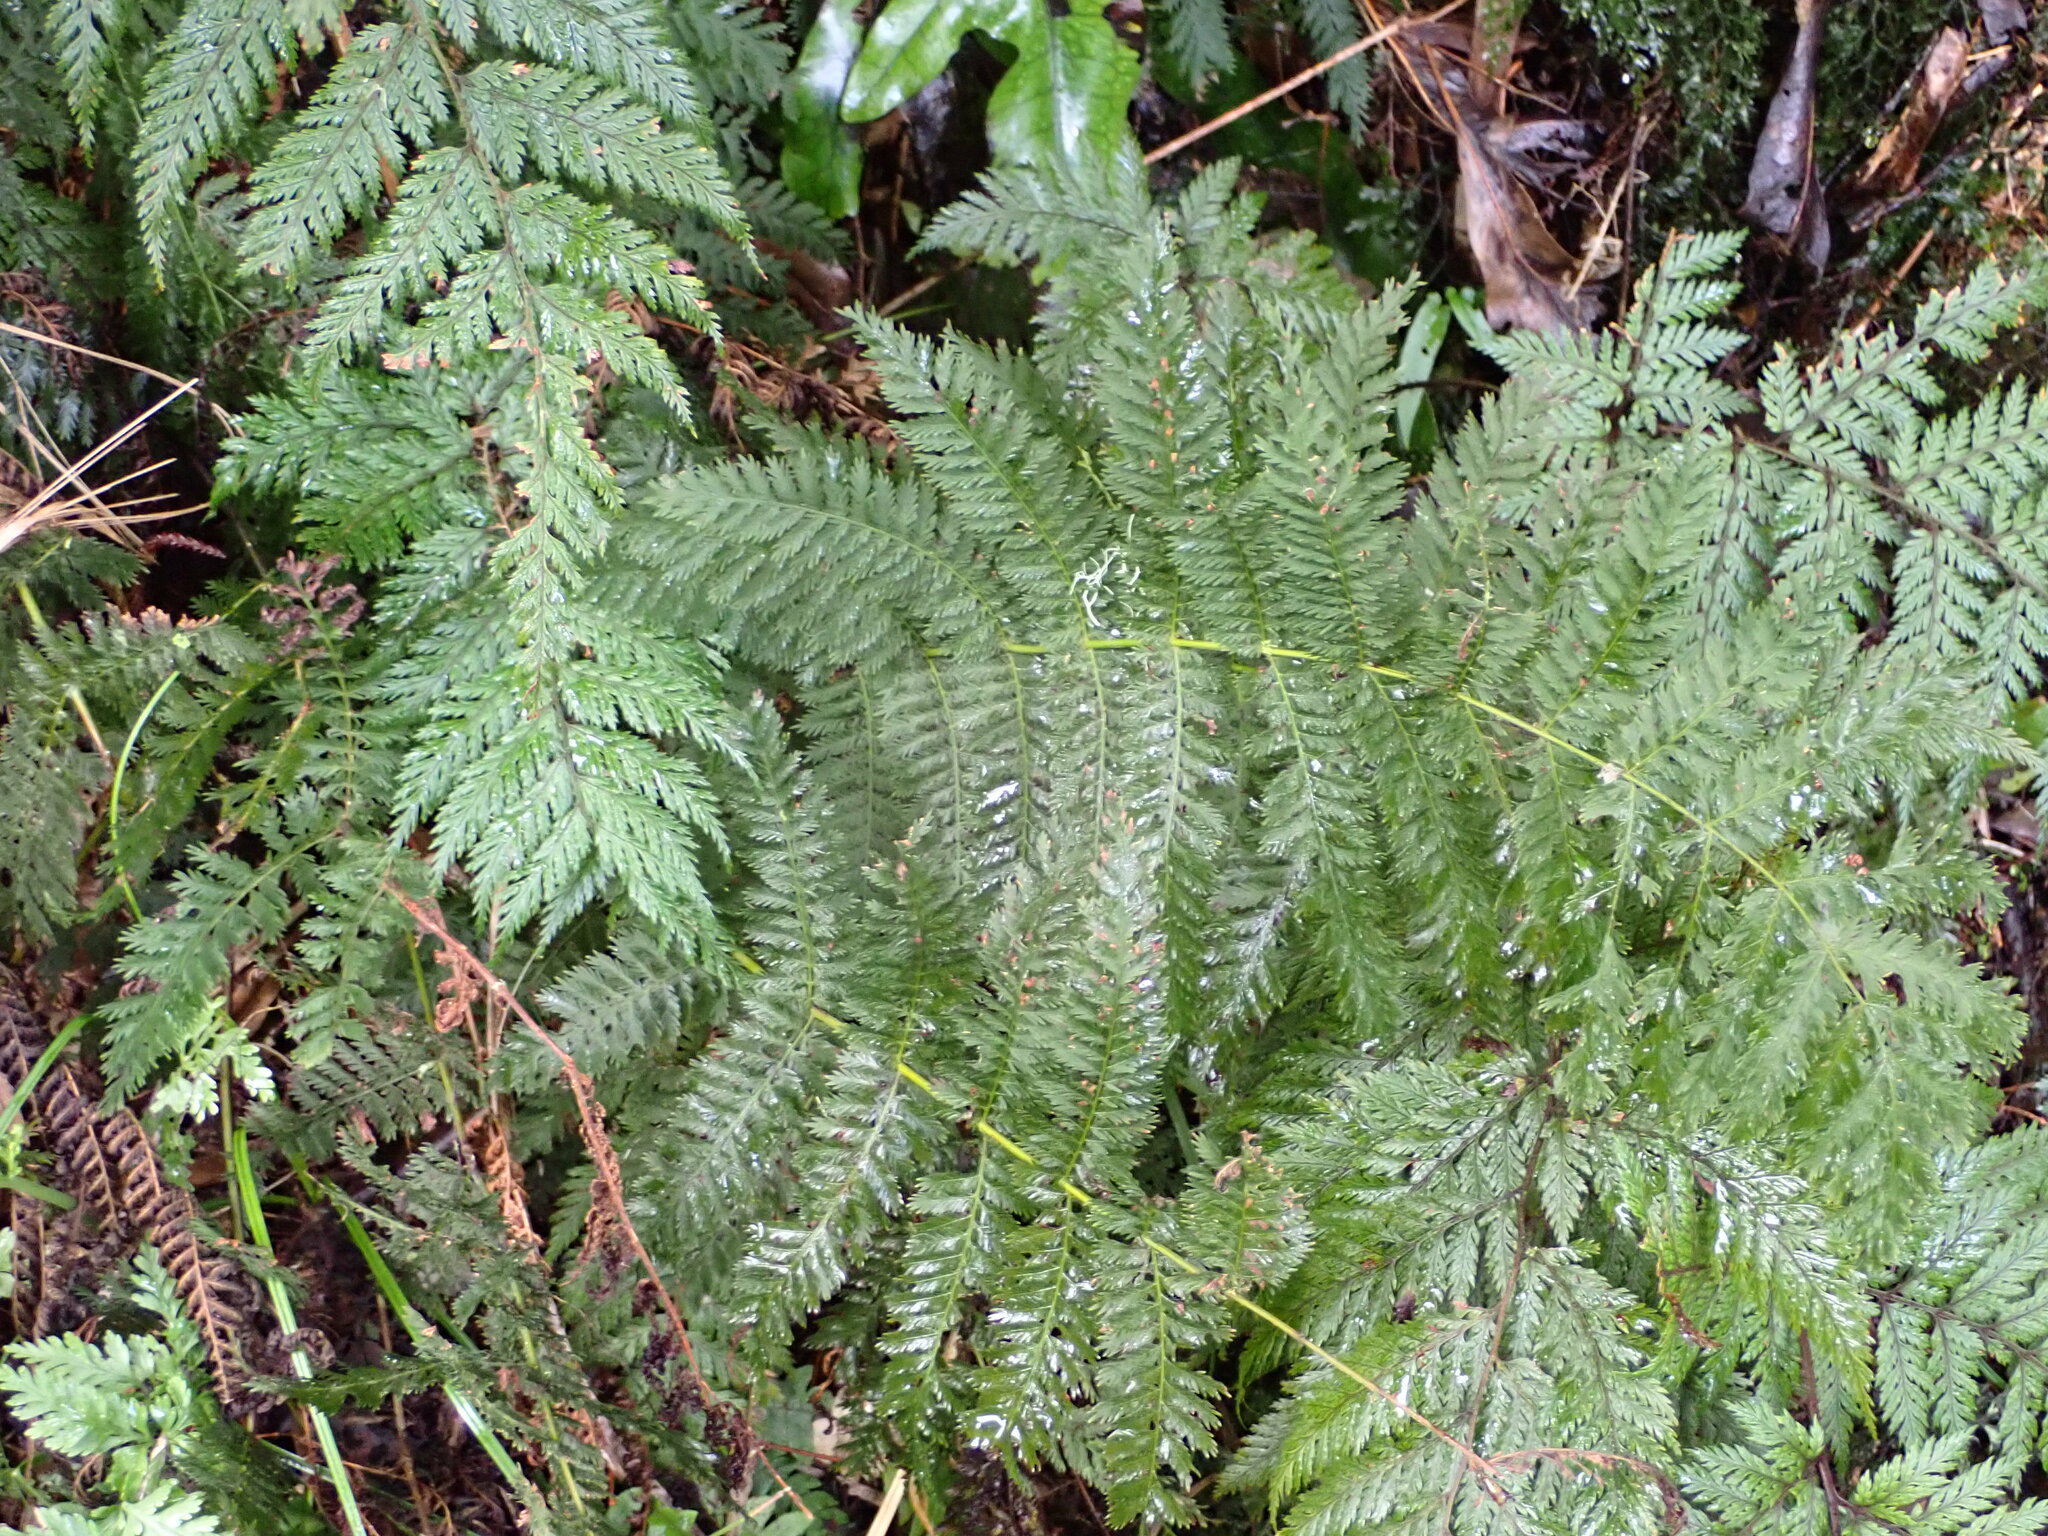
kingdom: Plantae
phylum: Tracheophyta
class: Polypodiopsida
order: Osmundales
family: Osmundaceae
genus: Leptopteris
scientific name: Leptopteris hymenophylloides
